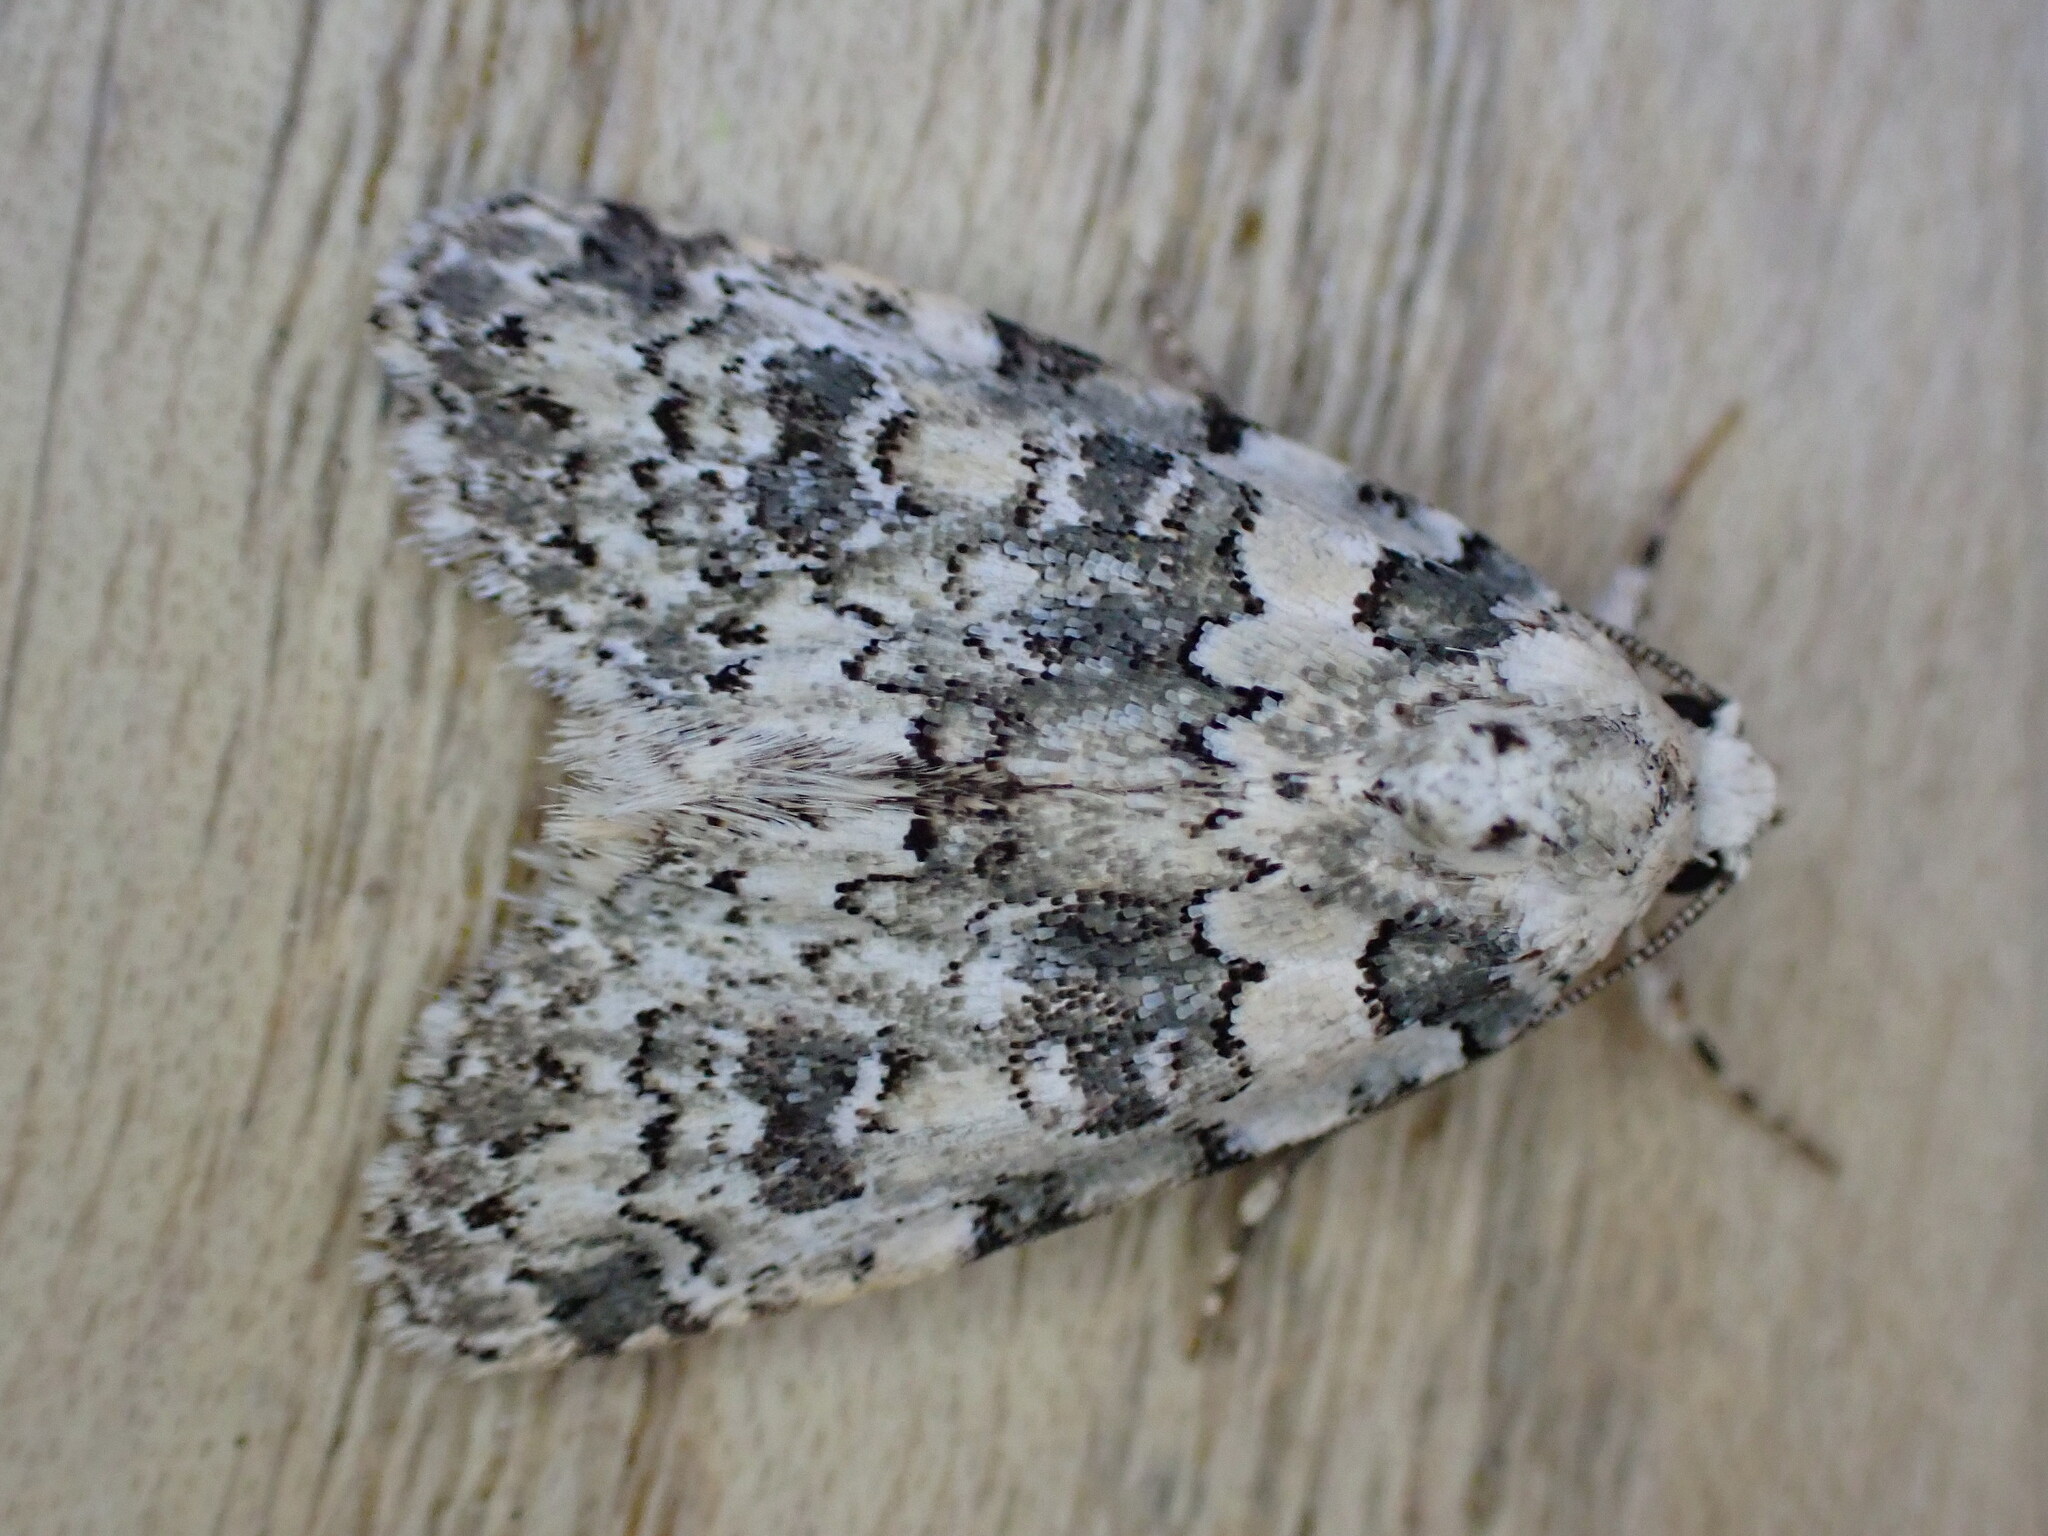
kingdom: Animalia
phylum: Arthropoda
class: Insecta
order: Lepidoptera
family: Noctuidae
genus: Bryophila
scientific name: Bryophila domestica
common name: Marbled beauty
